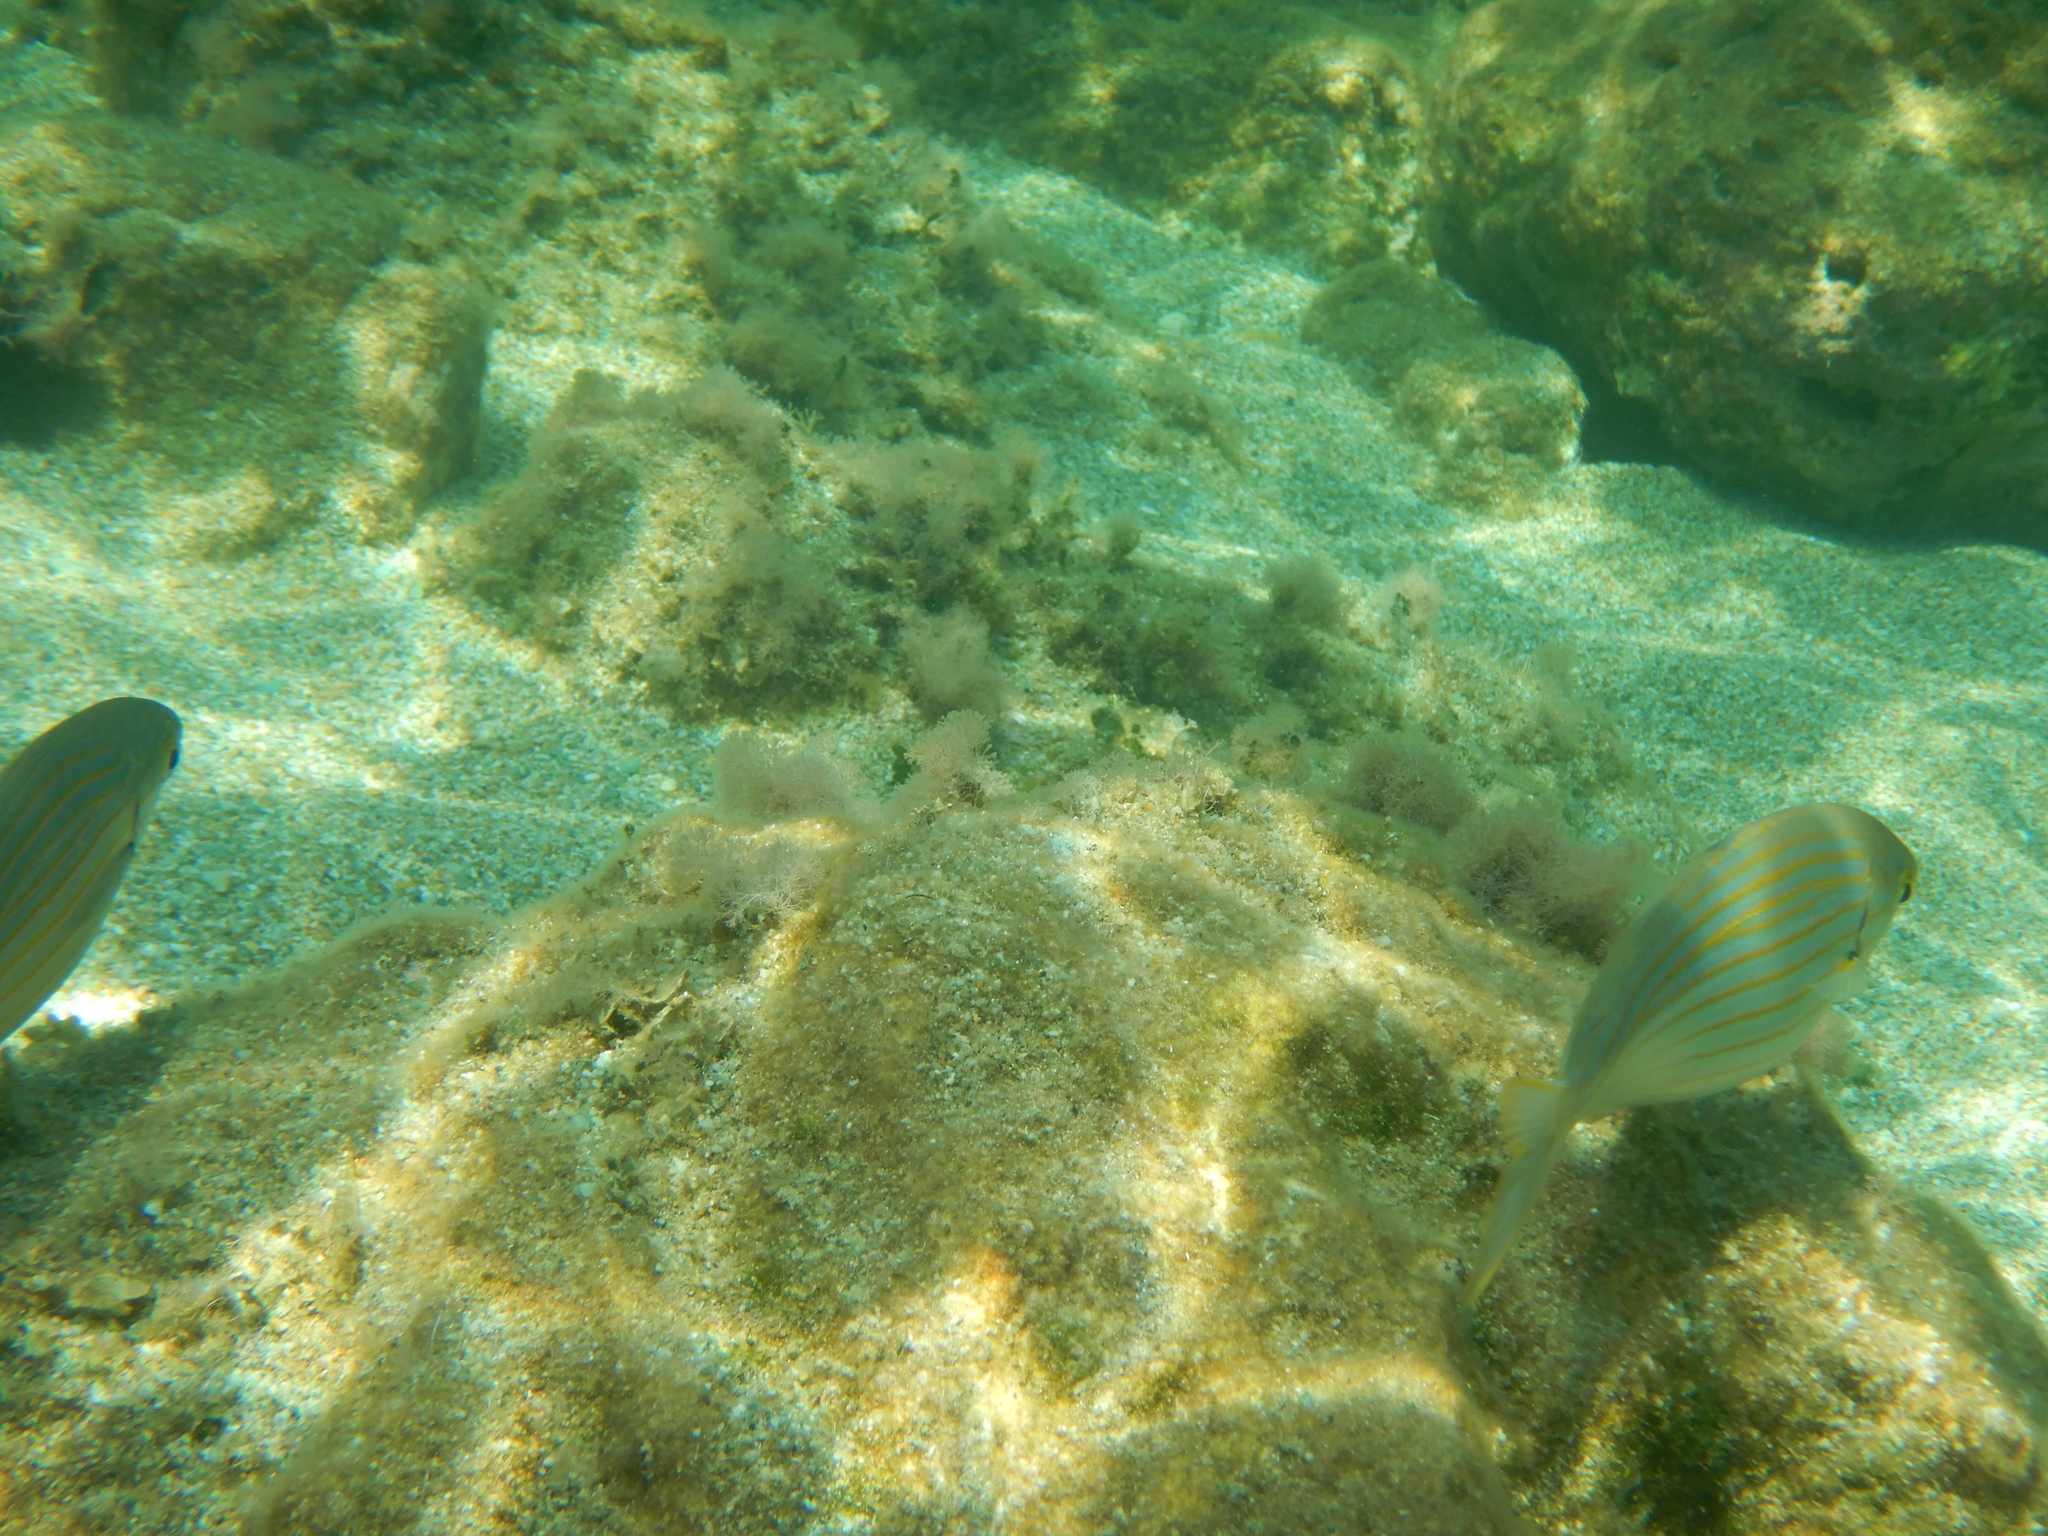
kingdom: Animalia
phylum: Chordata
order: Perciformes
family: Sparidae
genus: Sarpa
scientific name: Sarpa salpa
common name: Salema
